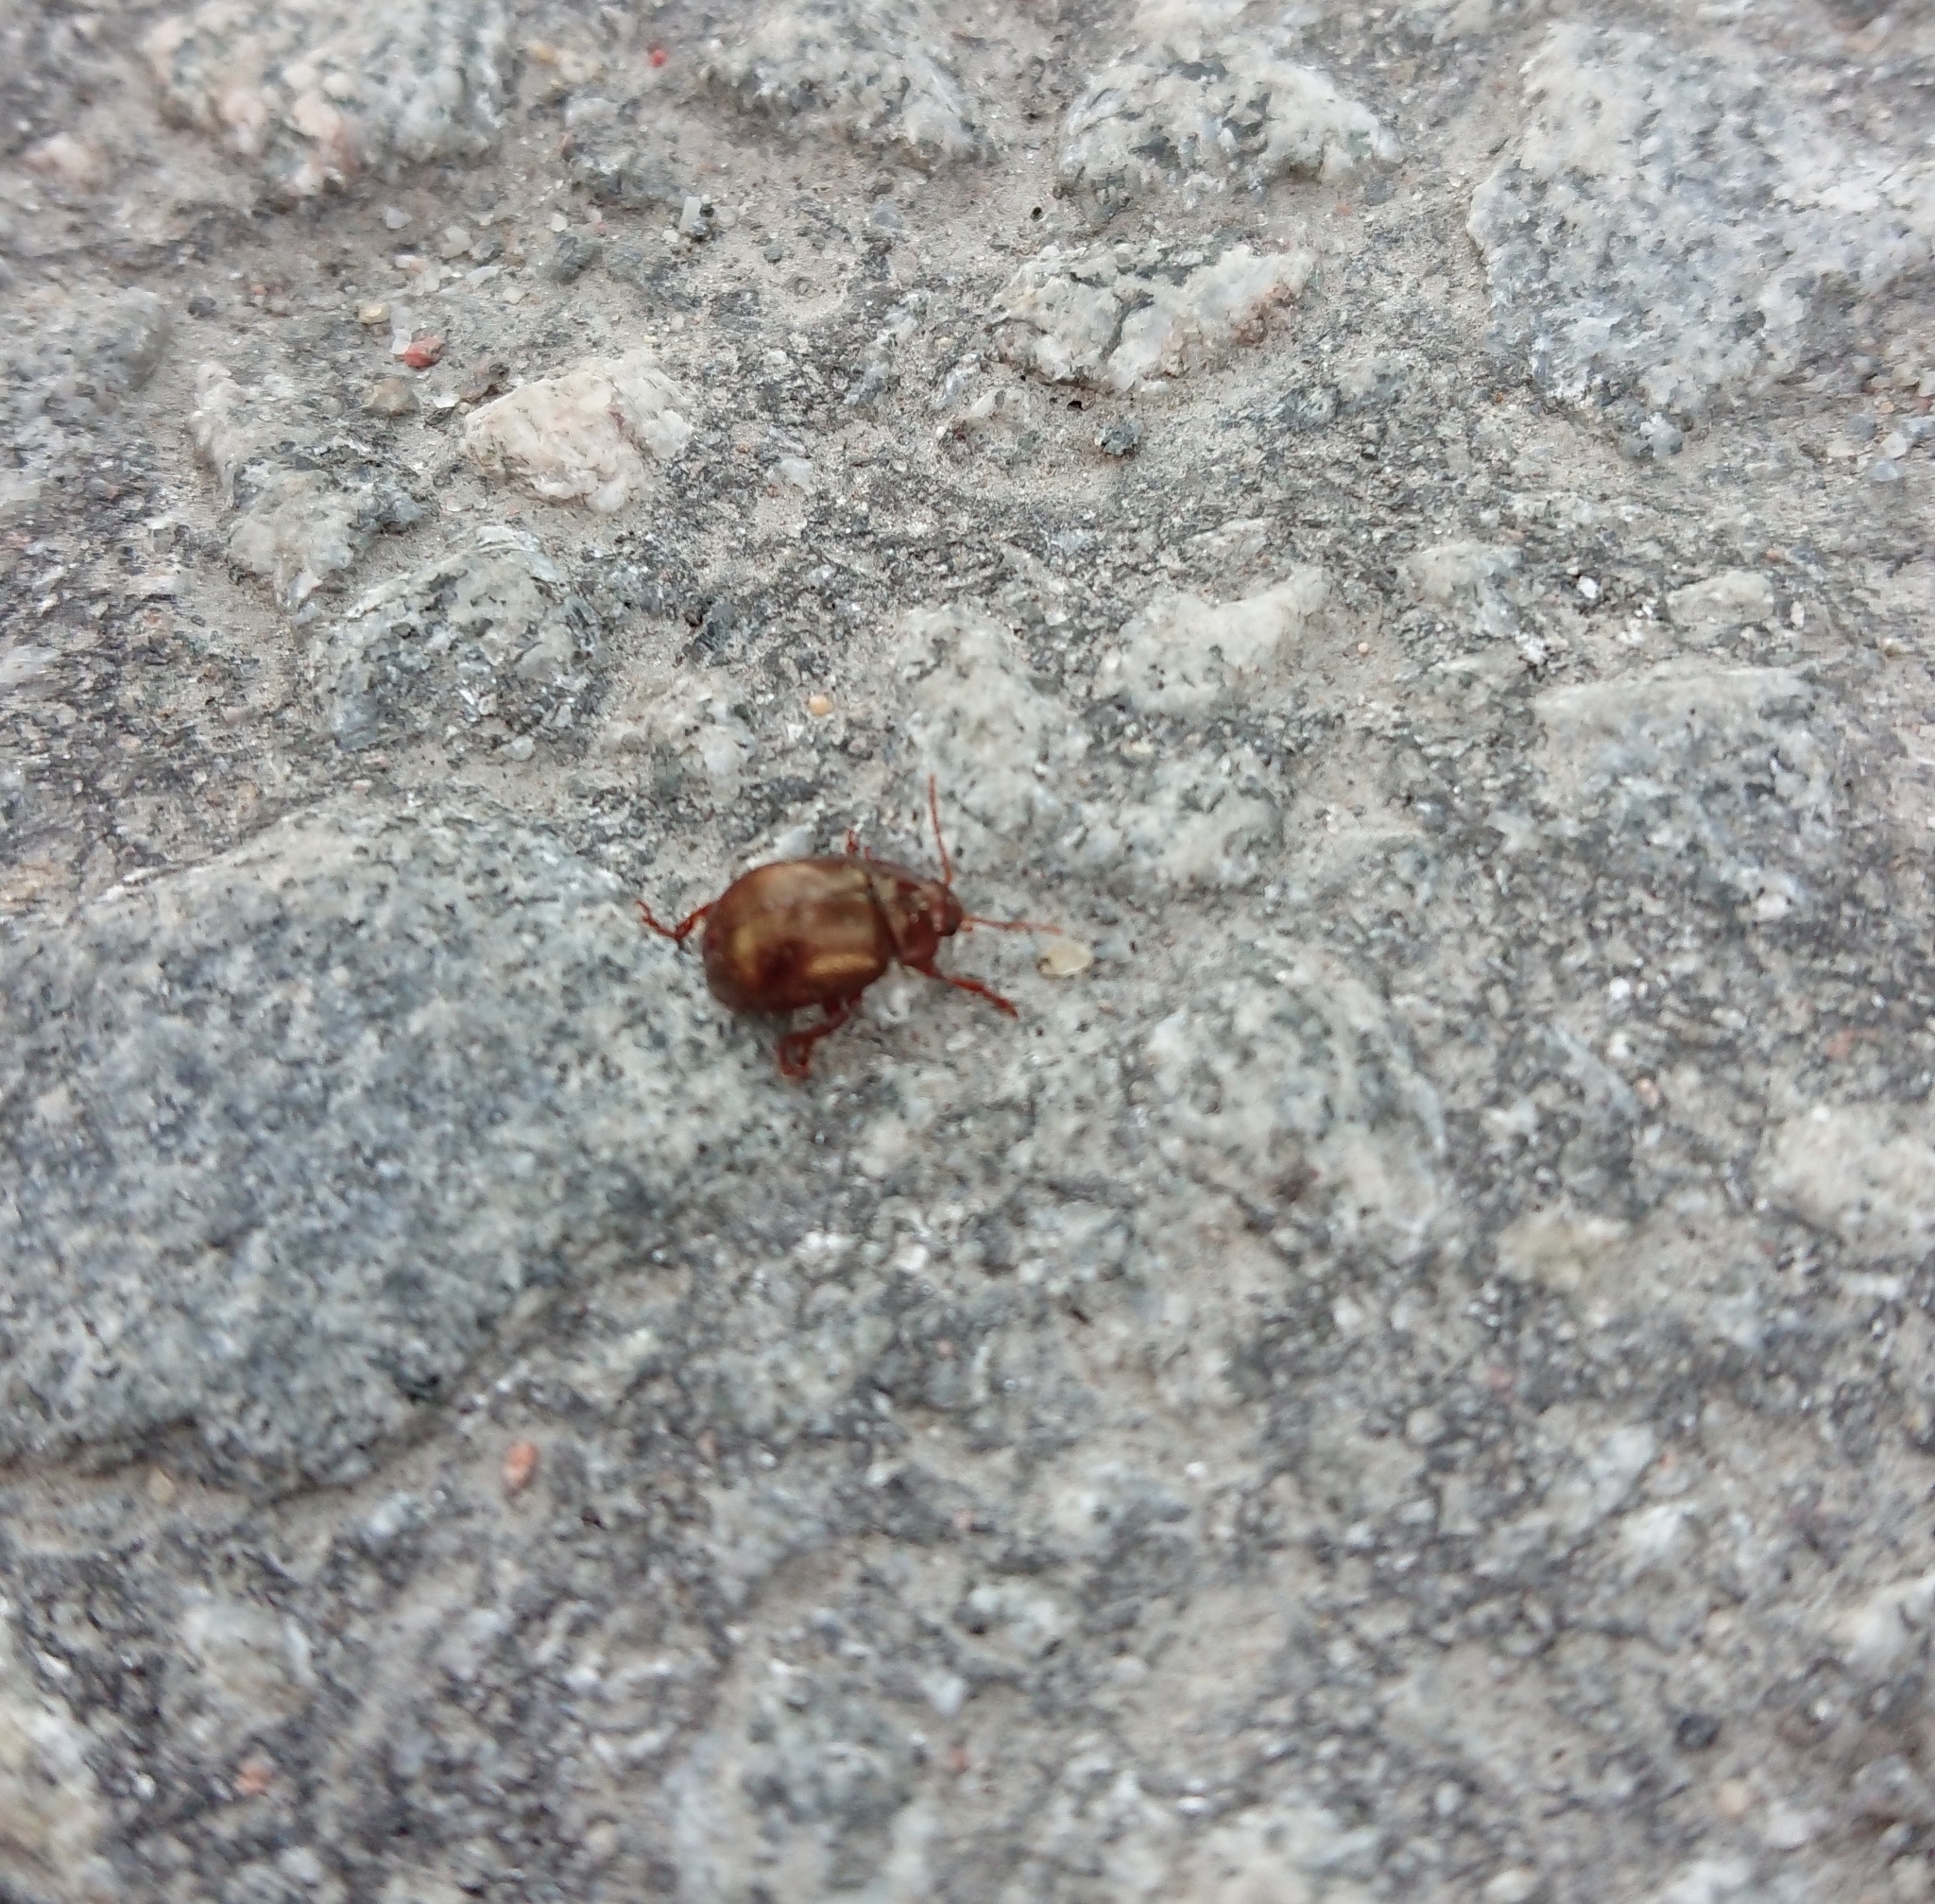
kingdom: Animalia
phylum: Arthropoda
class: Insecta
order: Coleoptera
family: Chrysomelidae
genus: Chrysolina
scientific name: Chrysolina staphylaea
